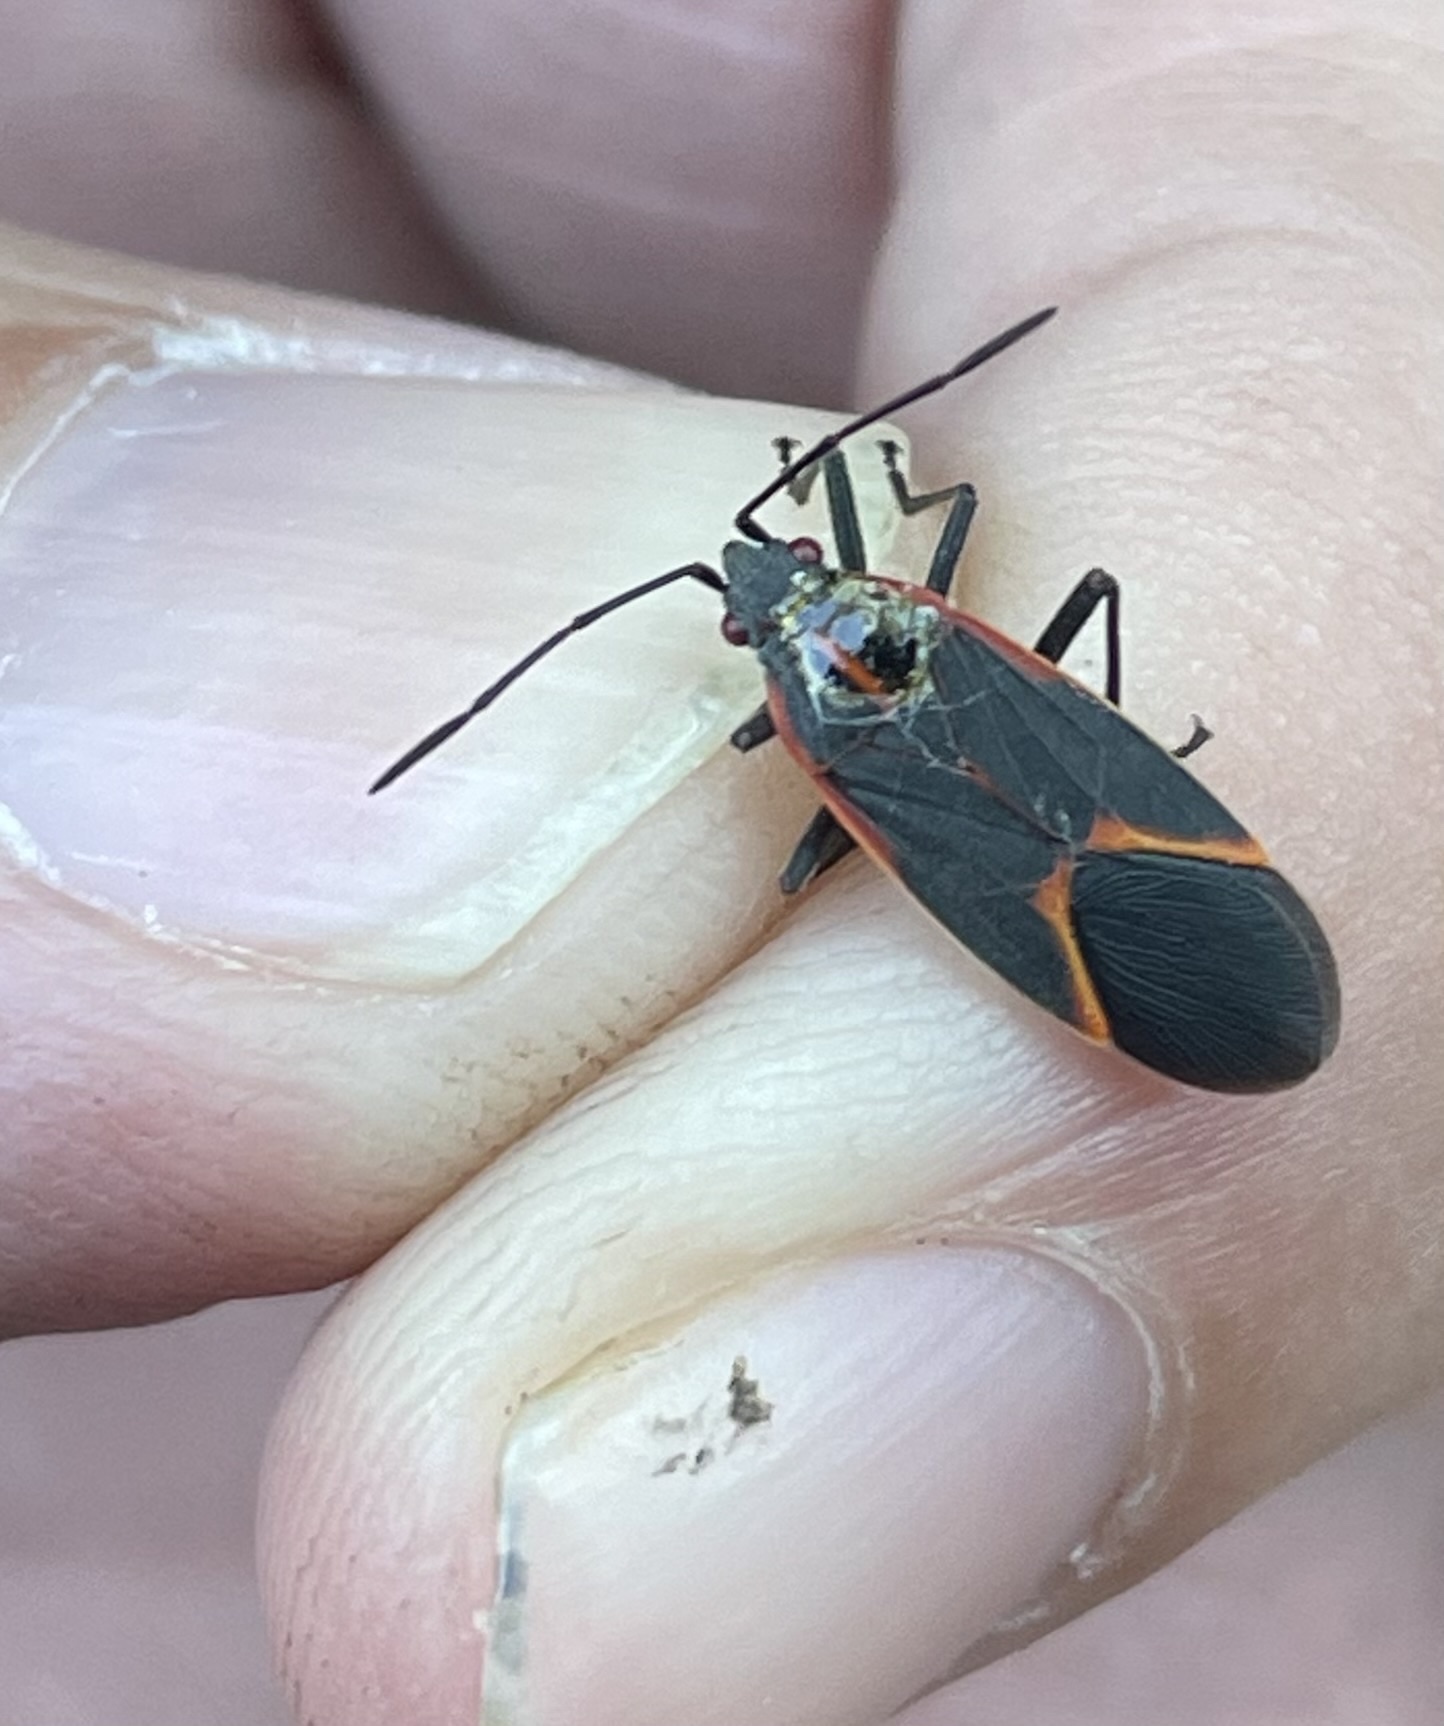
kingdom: Animalia
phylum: Arthropoda
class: Insecta
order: Hemiptera
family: Rhopalidae
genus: Boisea
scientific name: Boisea trivittata
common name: Boxelder bug
